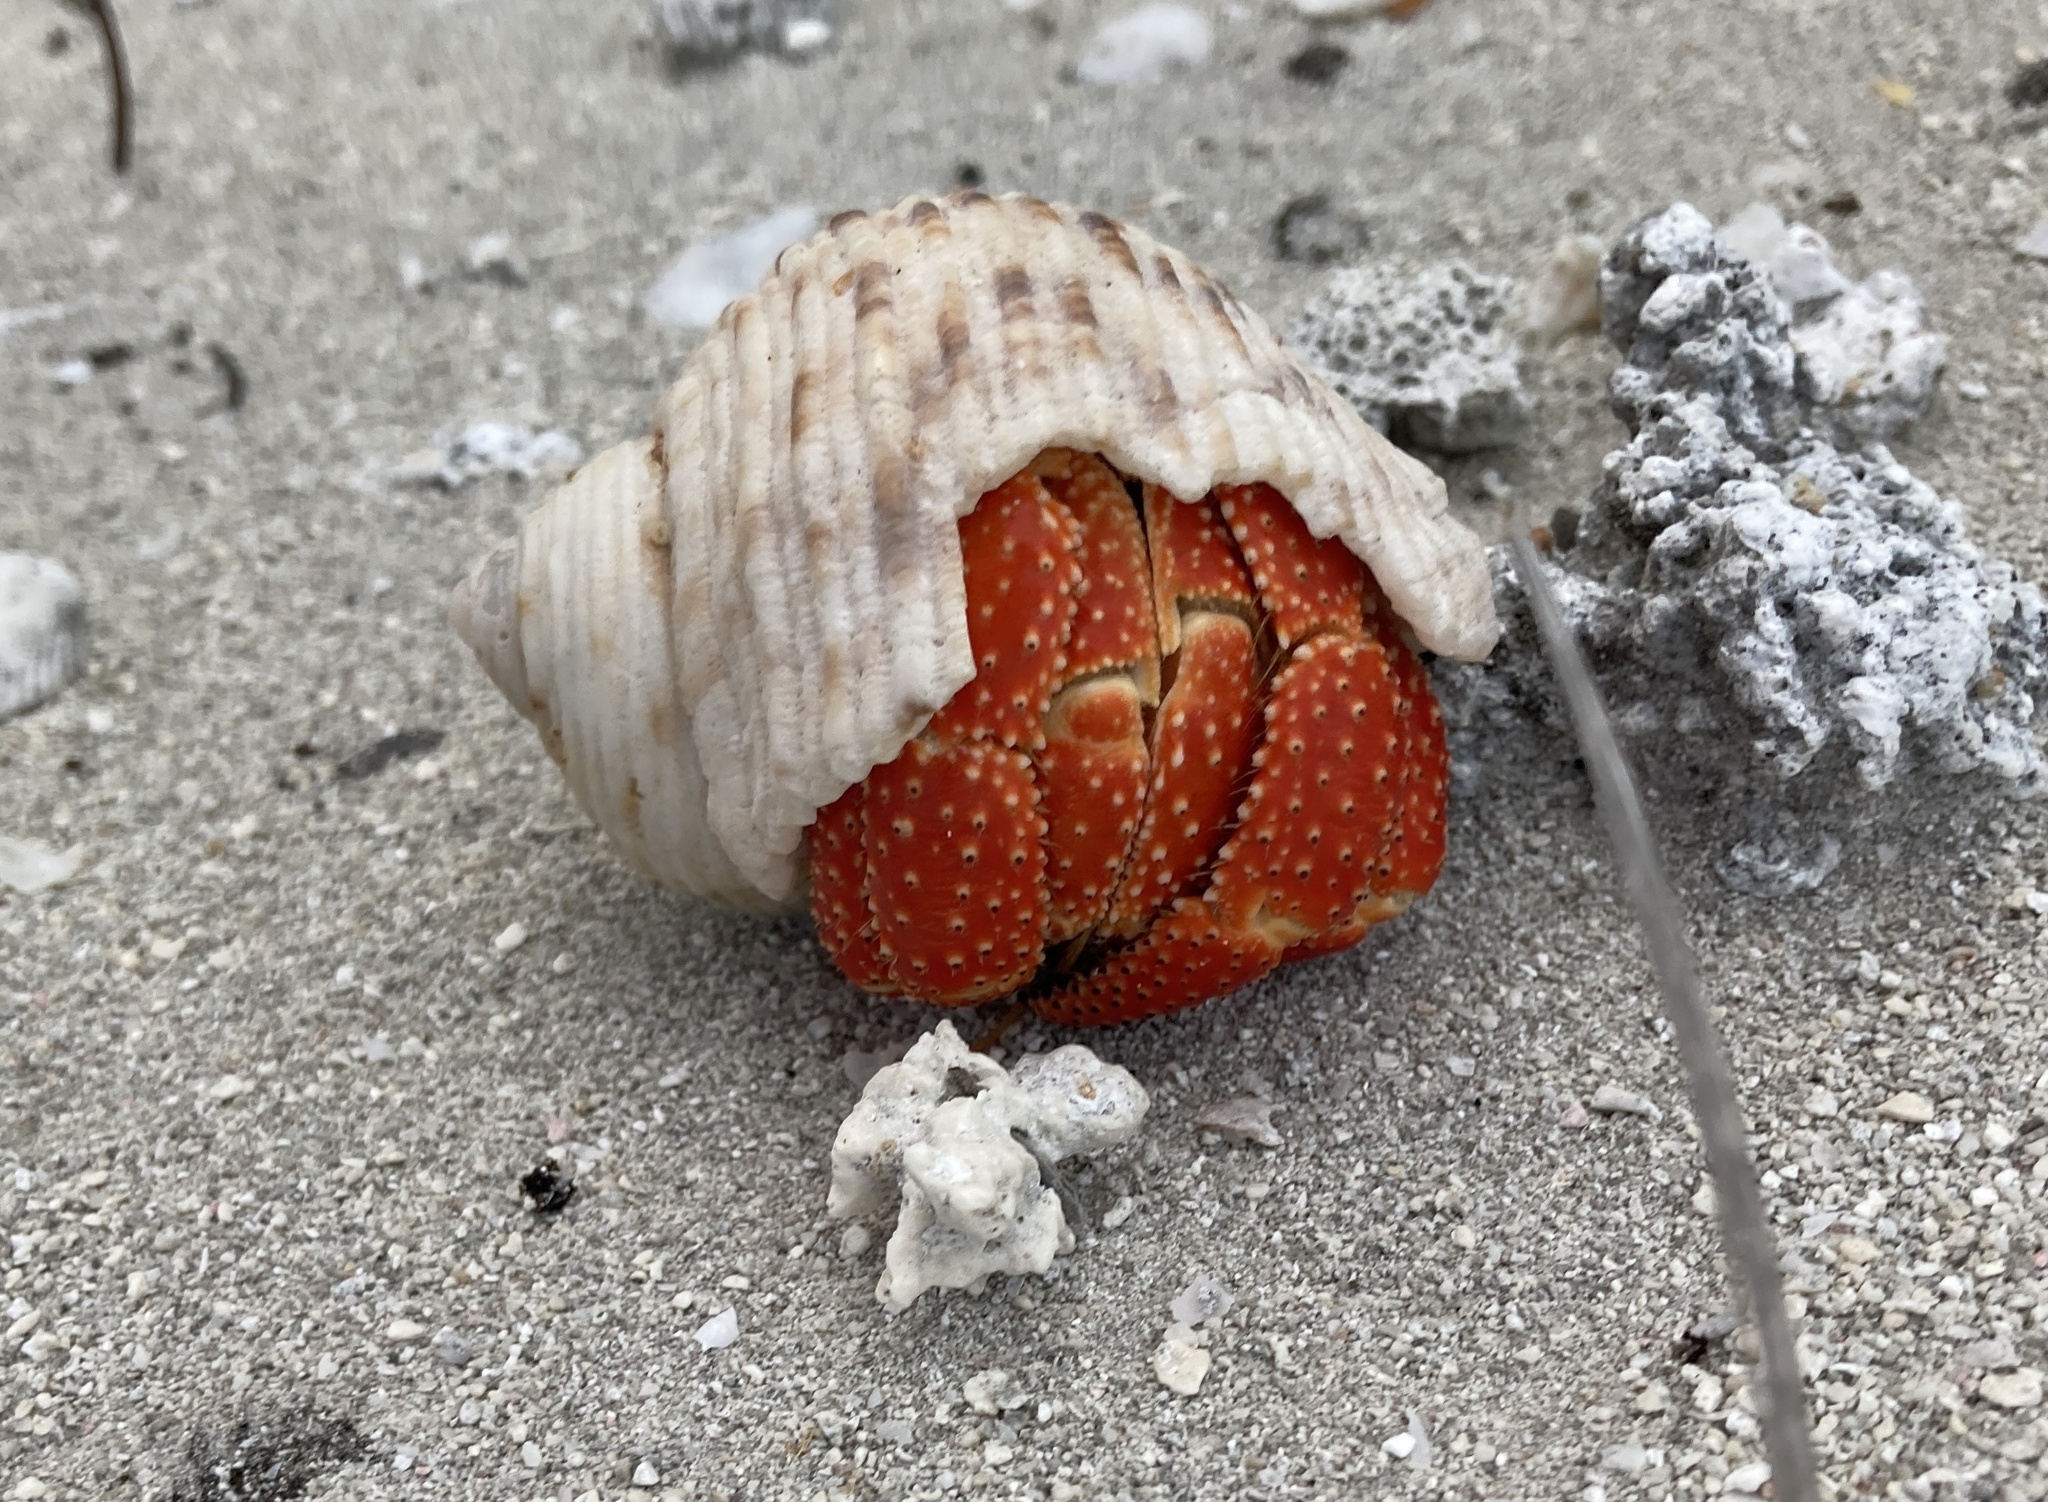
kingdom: Animalia
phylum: Arthropoda
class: Malacostraca
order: Decapoda
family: Coenobitidae
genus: Coenobita
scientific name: Coenobita perlatus
